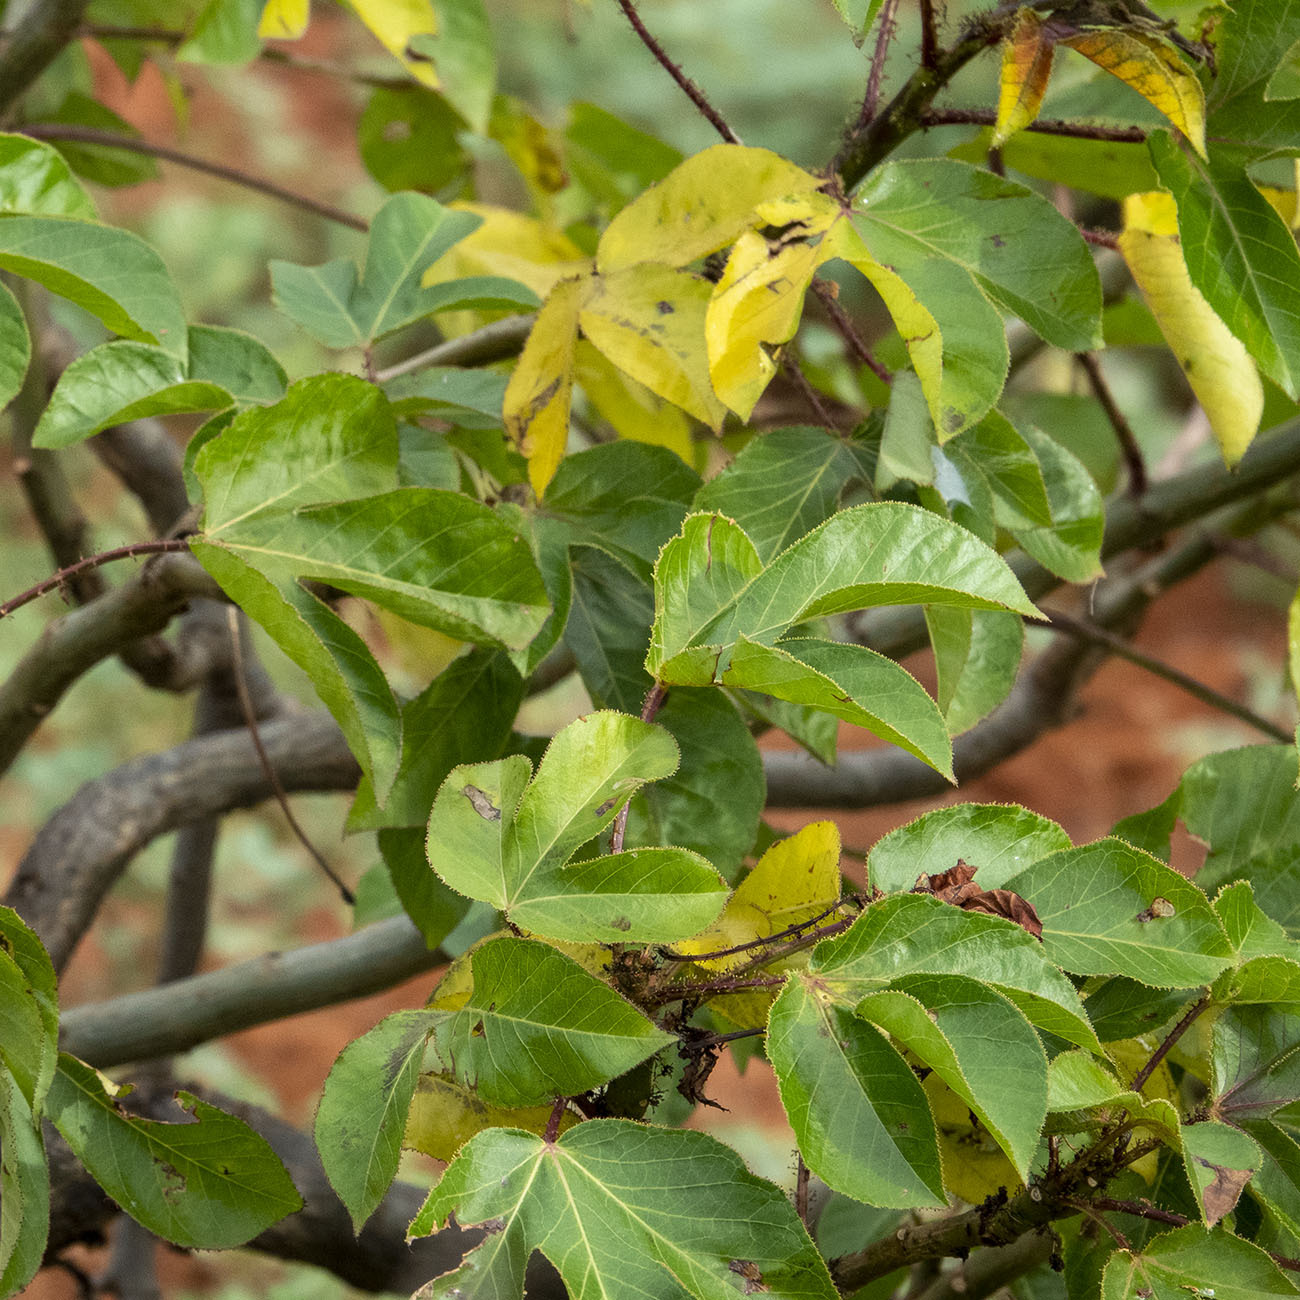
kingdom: Plantae
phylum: Tracheophyta
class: Magnoliopsida
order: Malpighiales
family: Euphorbiaceae
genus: Jatropha
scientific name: Jatropha gossypiifolia
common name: Bellyache bush
